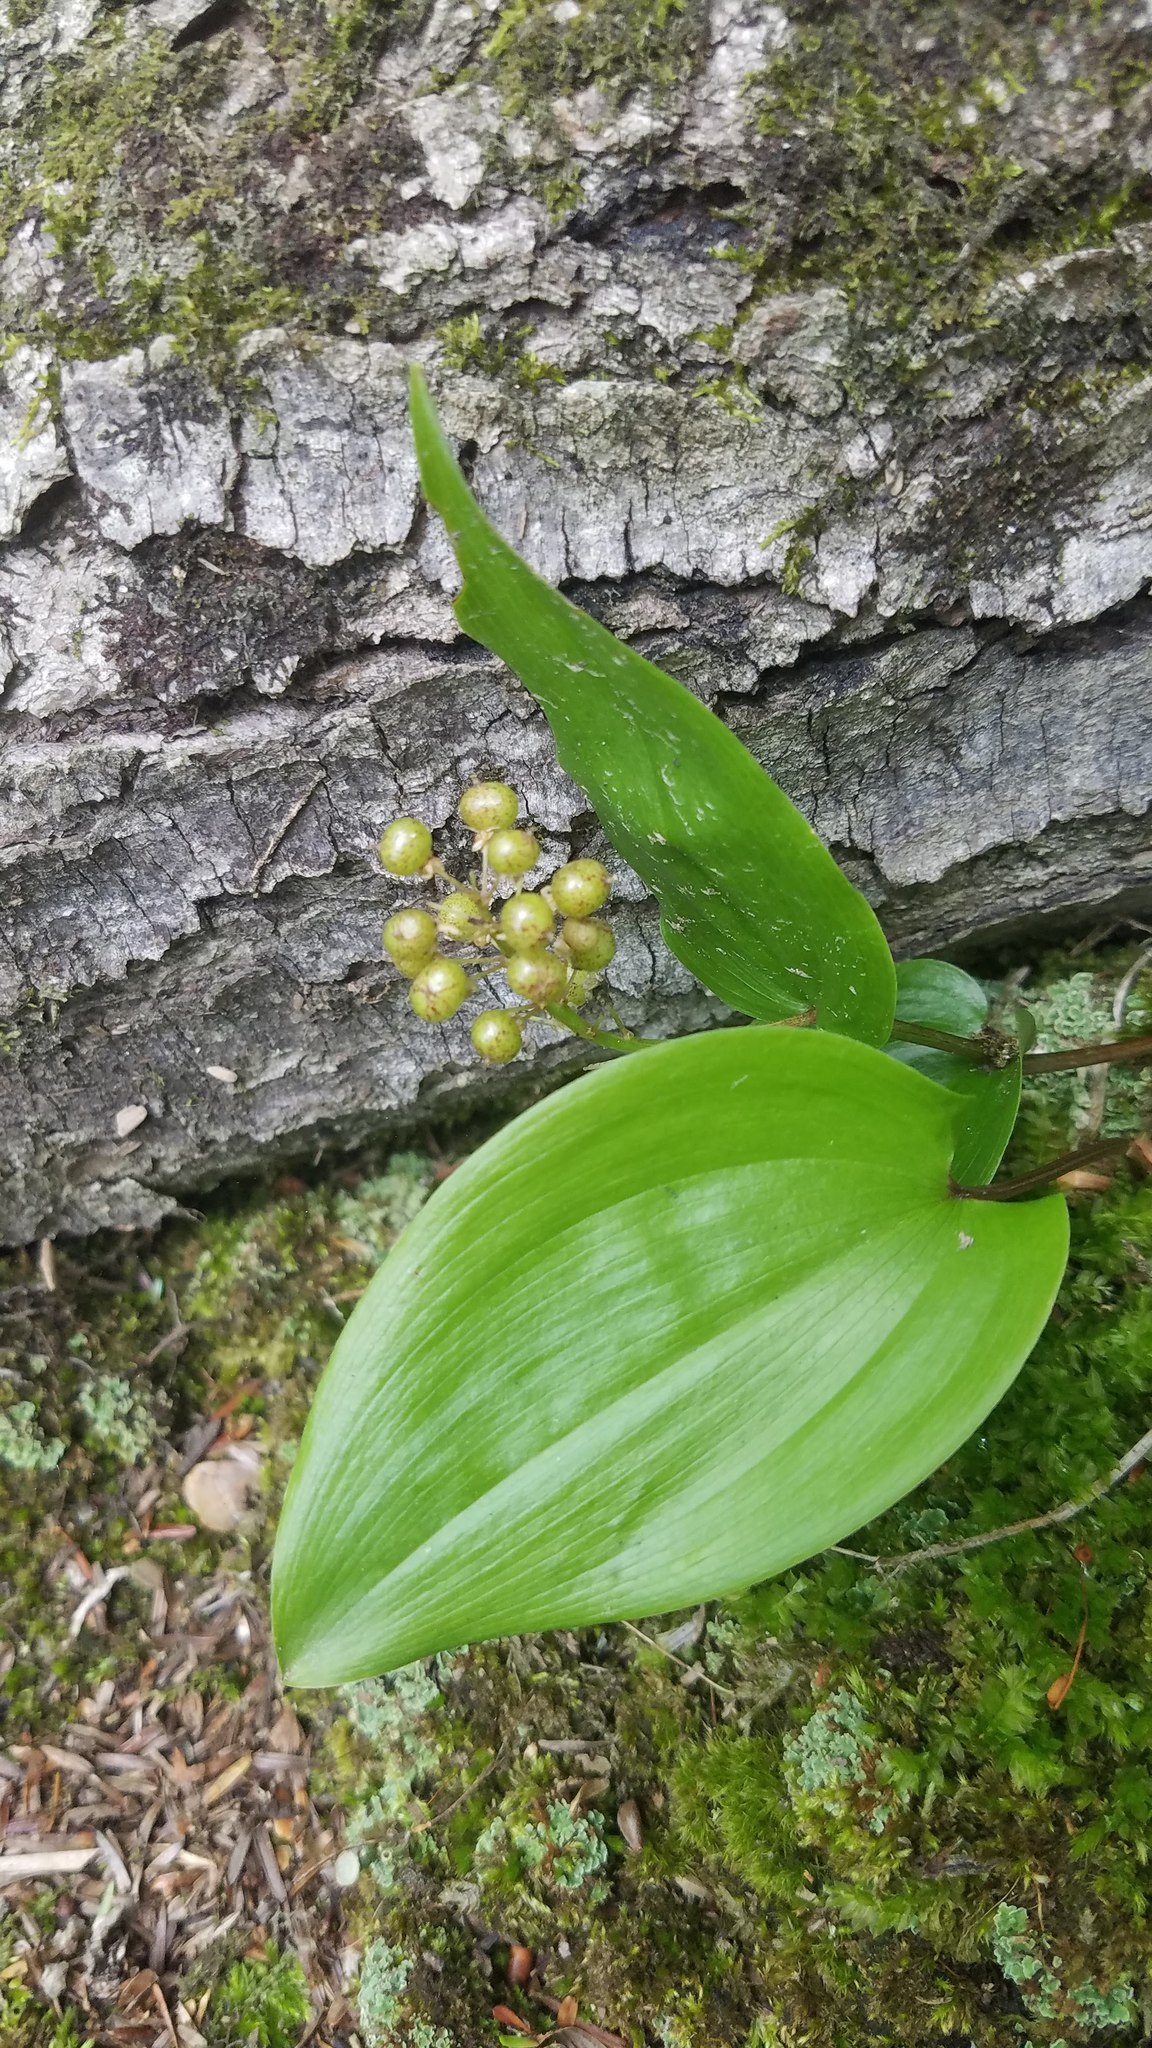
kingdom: Plantae
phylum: Tracheophyta
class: Liliopsida
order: Asparagales
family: Asparagaceae
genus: Maianthemum
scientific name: Maianthemum canadense
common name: False lily-of-the-valley
